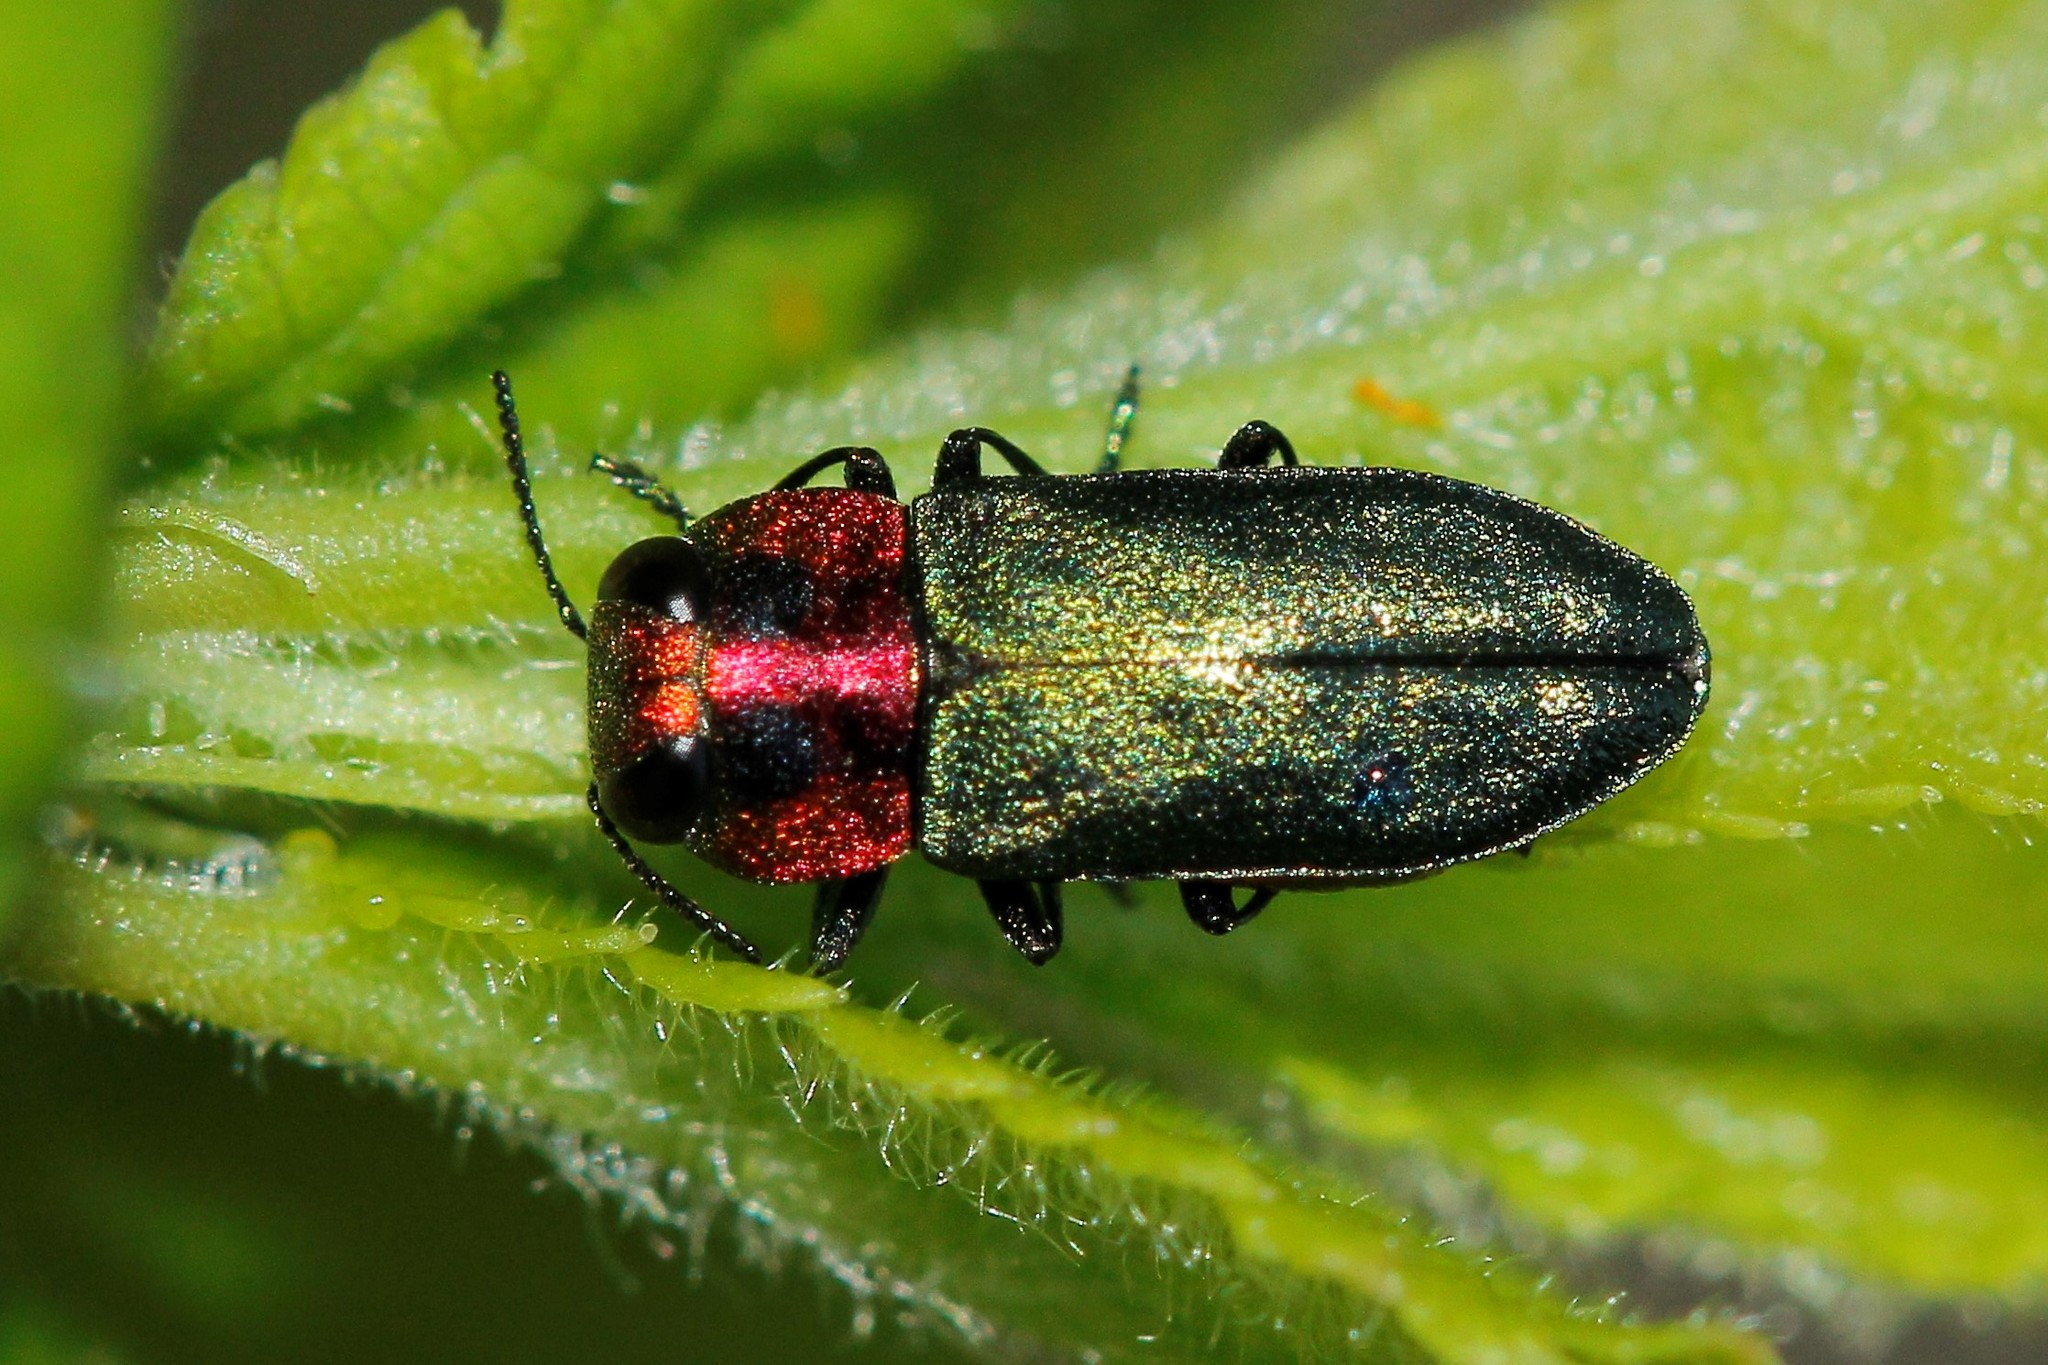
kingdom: Animalia
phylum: Arthropoda
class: Insecta
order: Coleoptera
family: Buprestidae
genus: Anthaxia
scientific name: Anthaxia nitidula
